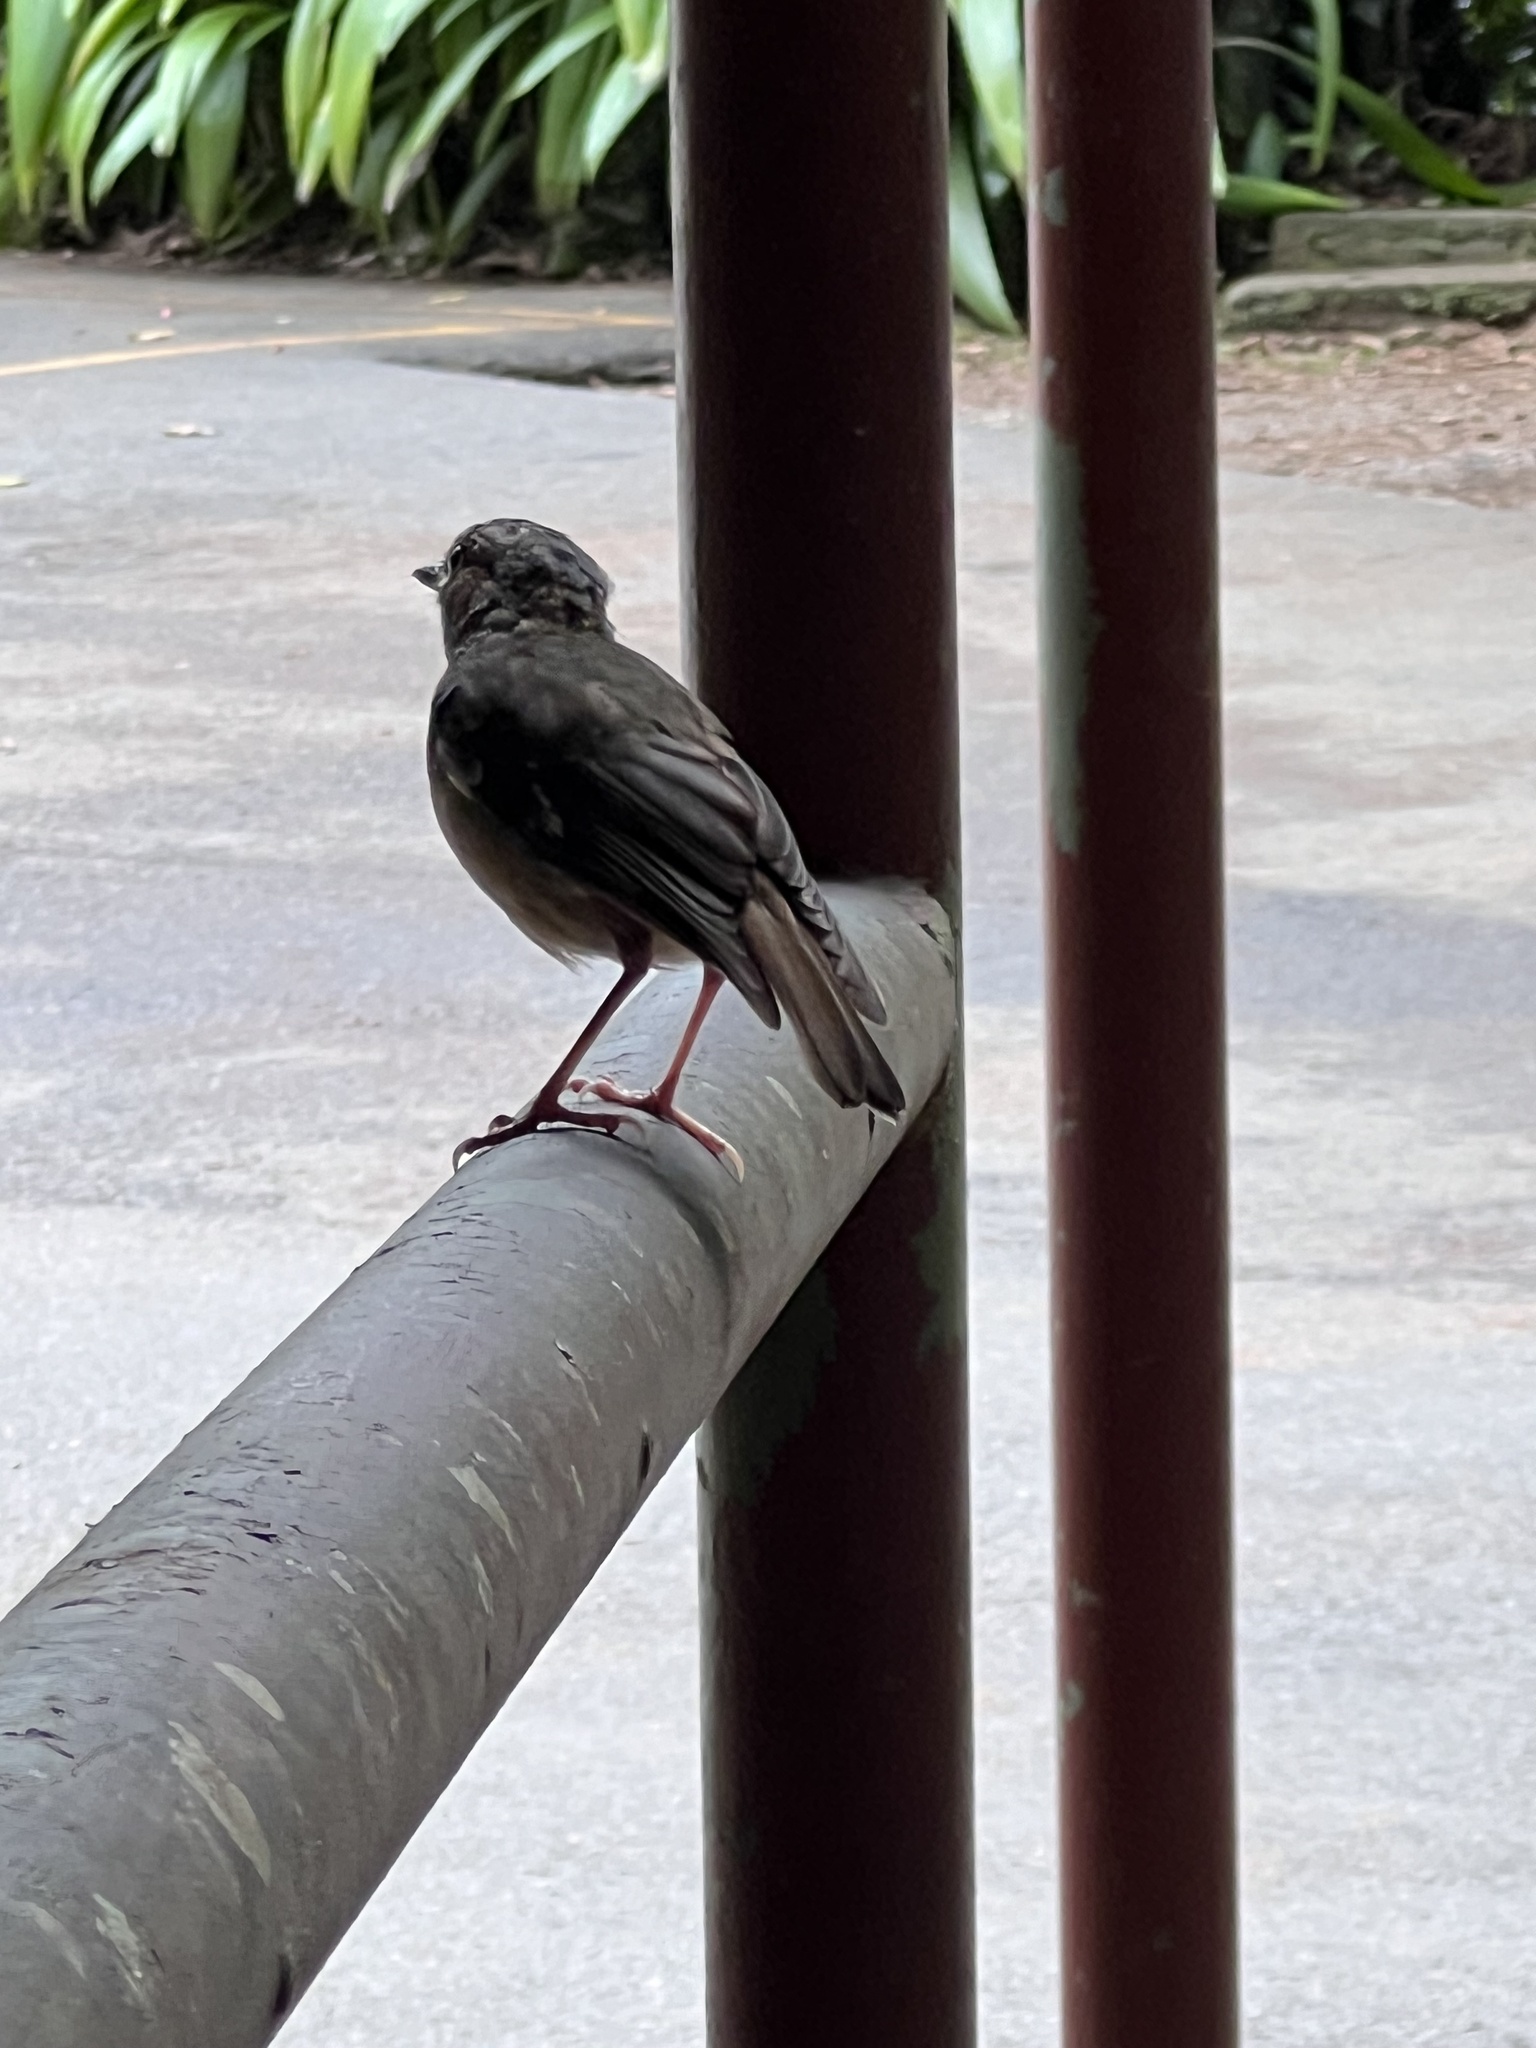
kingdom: Animalia
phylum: Chordata
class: Aves
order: Passeriformes
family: Petroicidae
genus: Heteromyias
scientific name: Heteromyias cinereifrons
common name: Grey-headed robin
